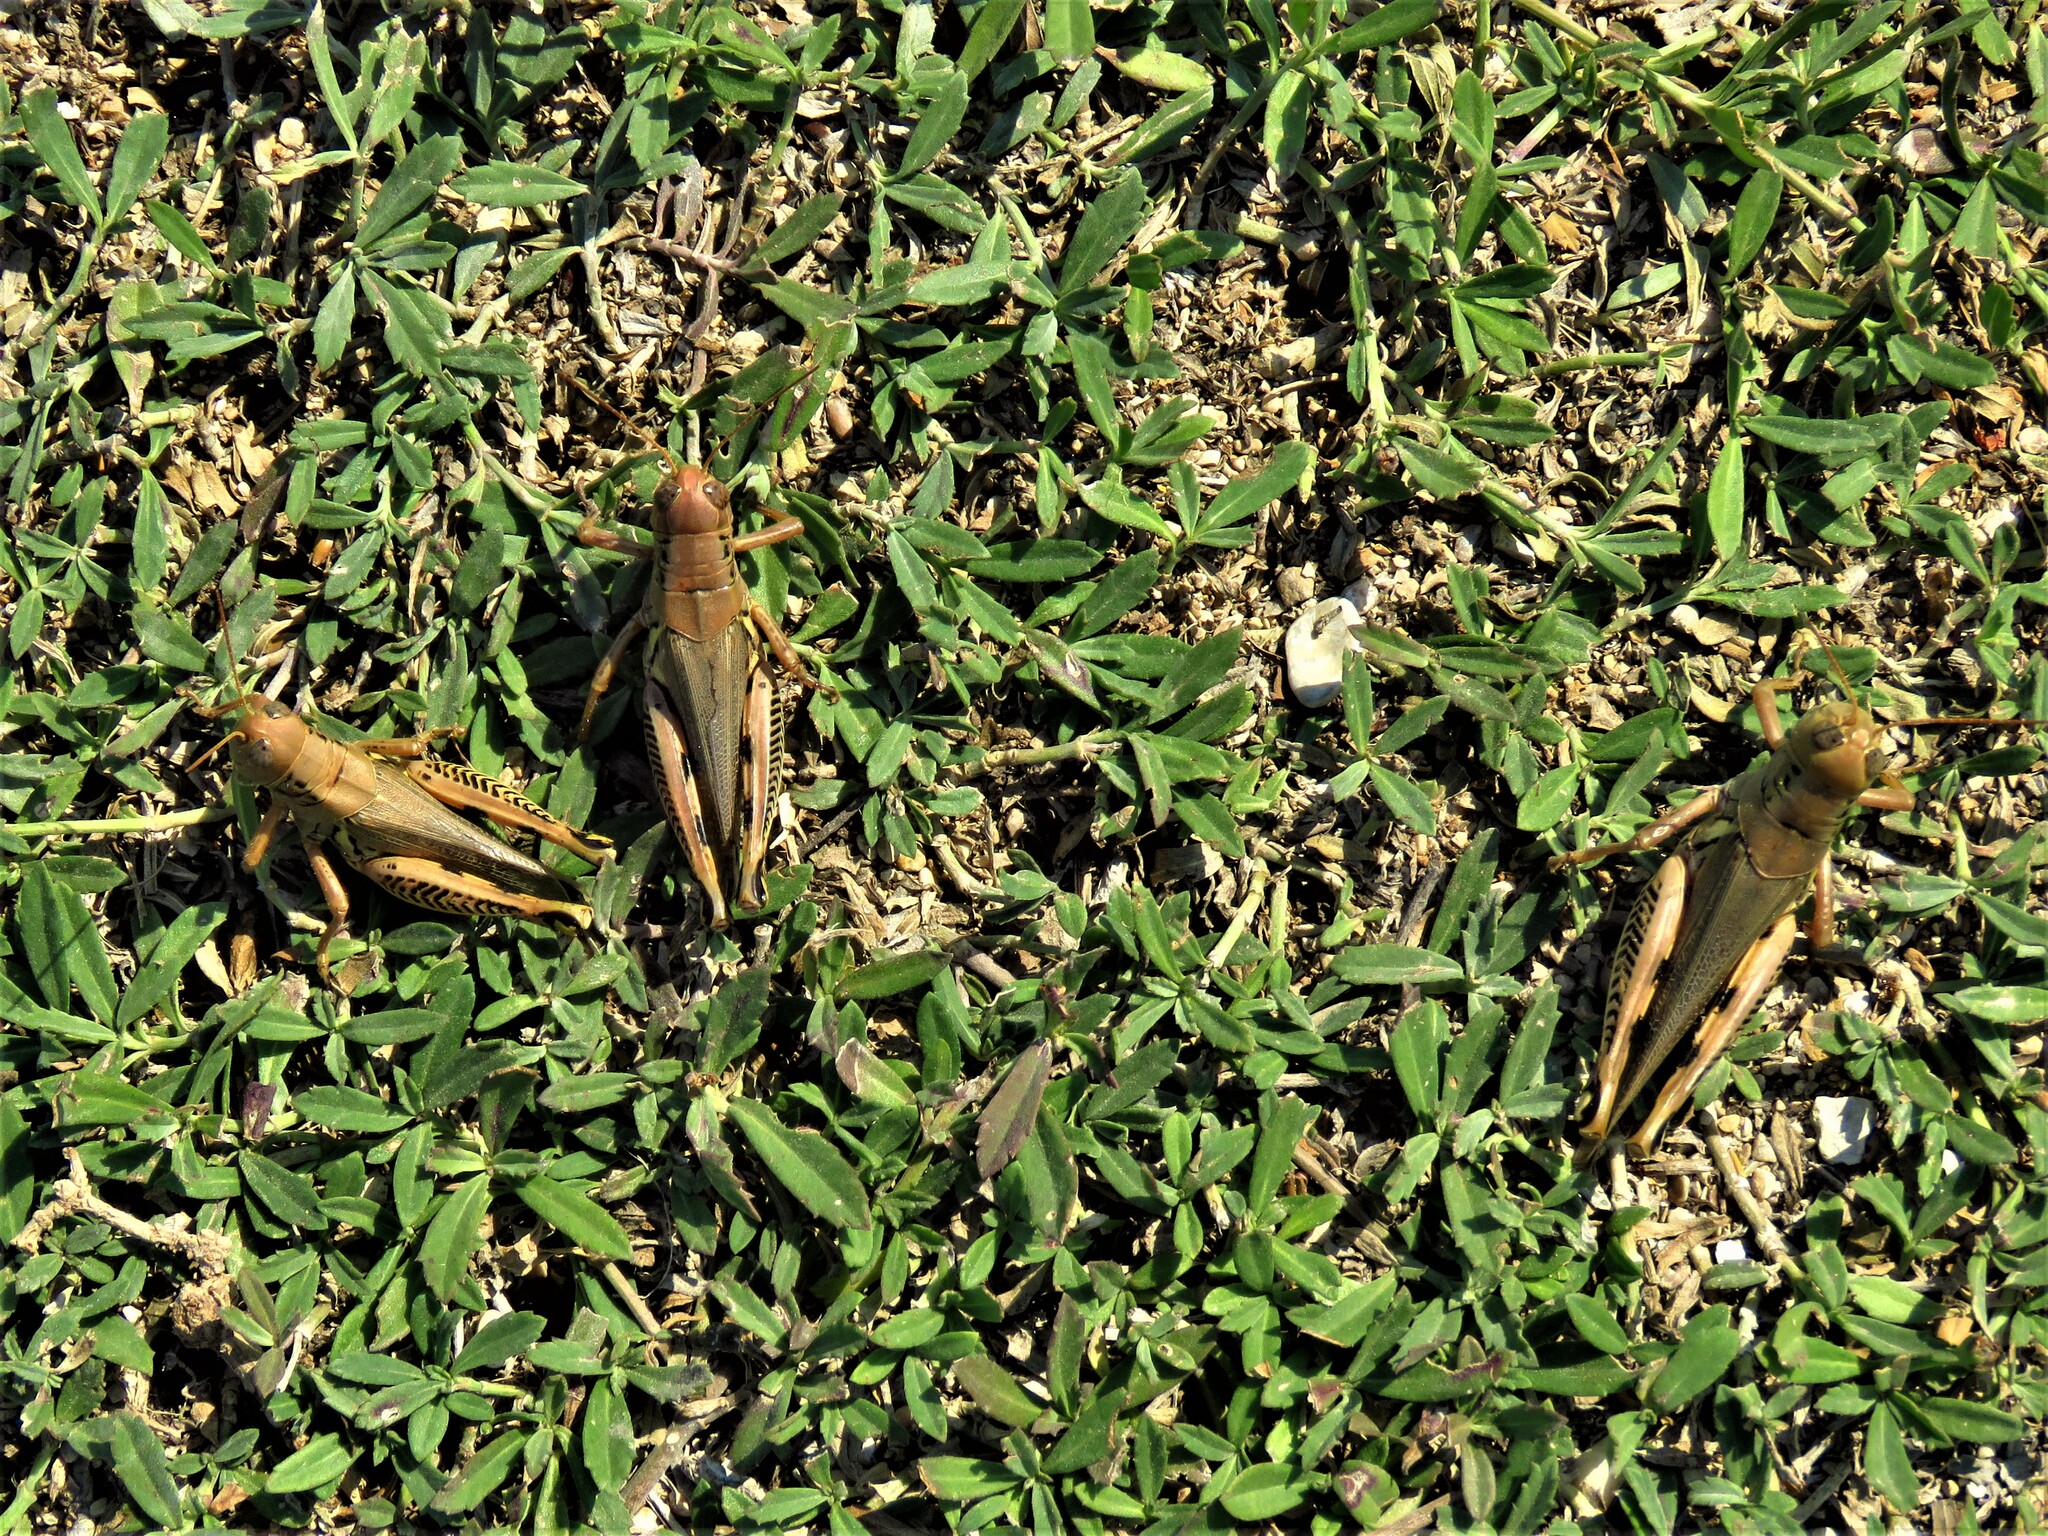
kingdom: Animalia
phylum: Arthropoda
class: Insecta
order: Orthoptera
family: Acrididae
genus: Melanoplus
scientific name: Melanoplus differentialis
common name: Differential grasshopper
